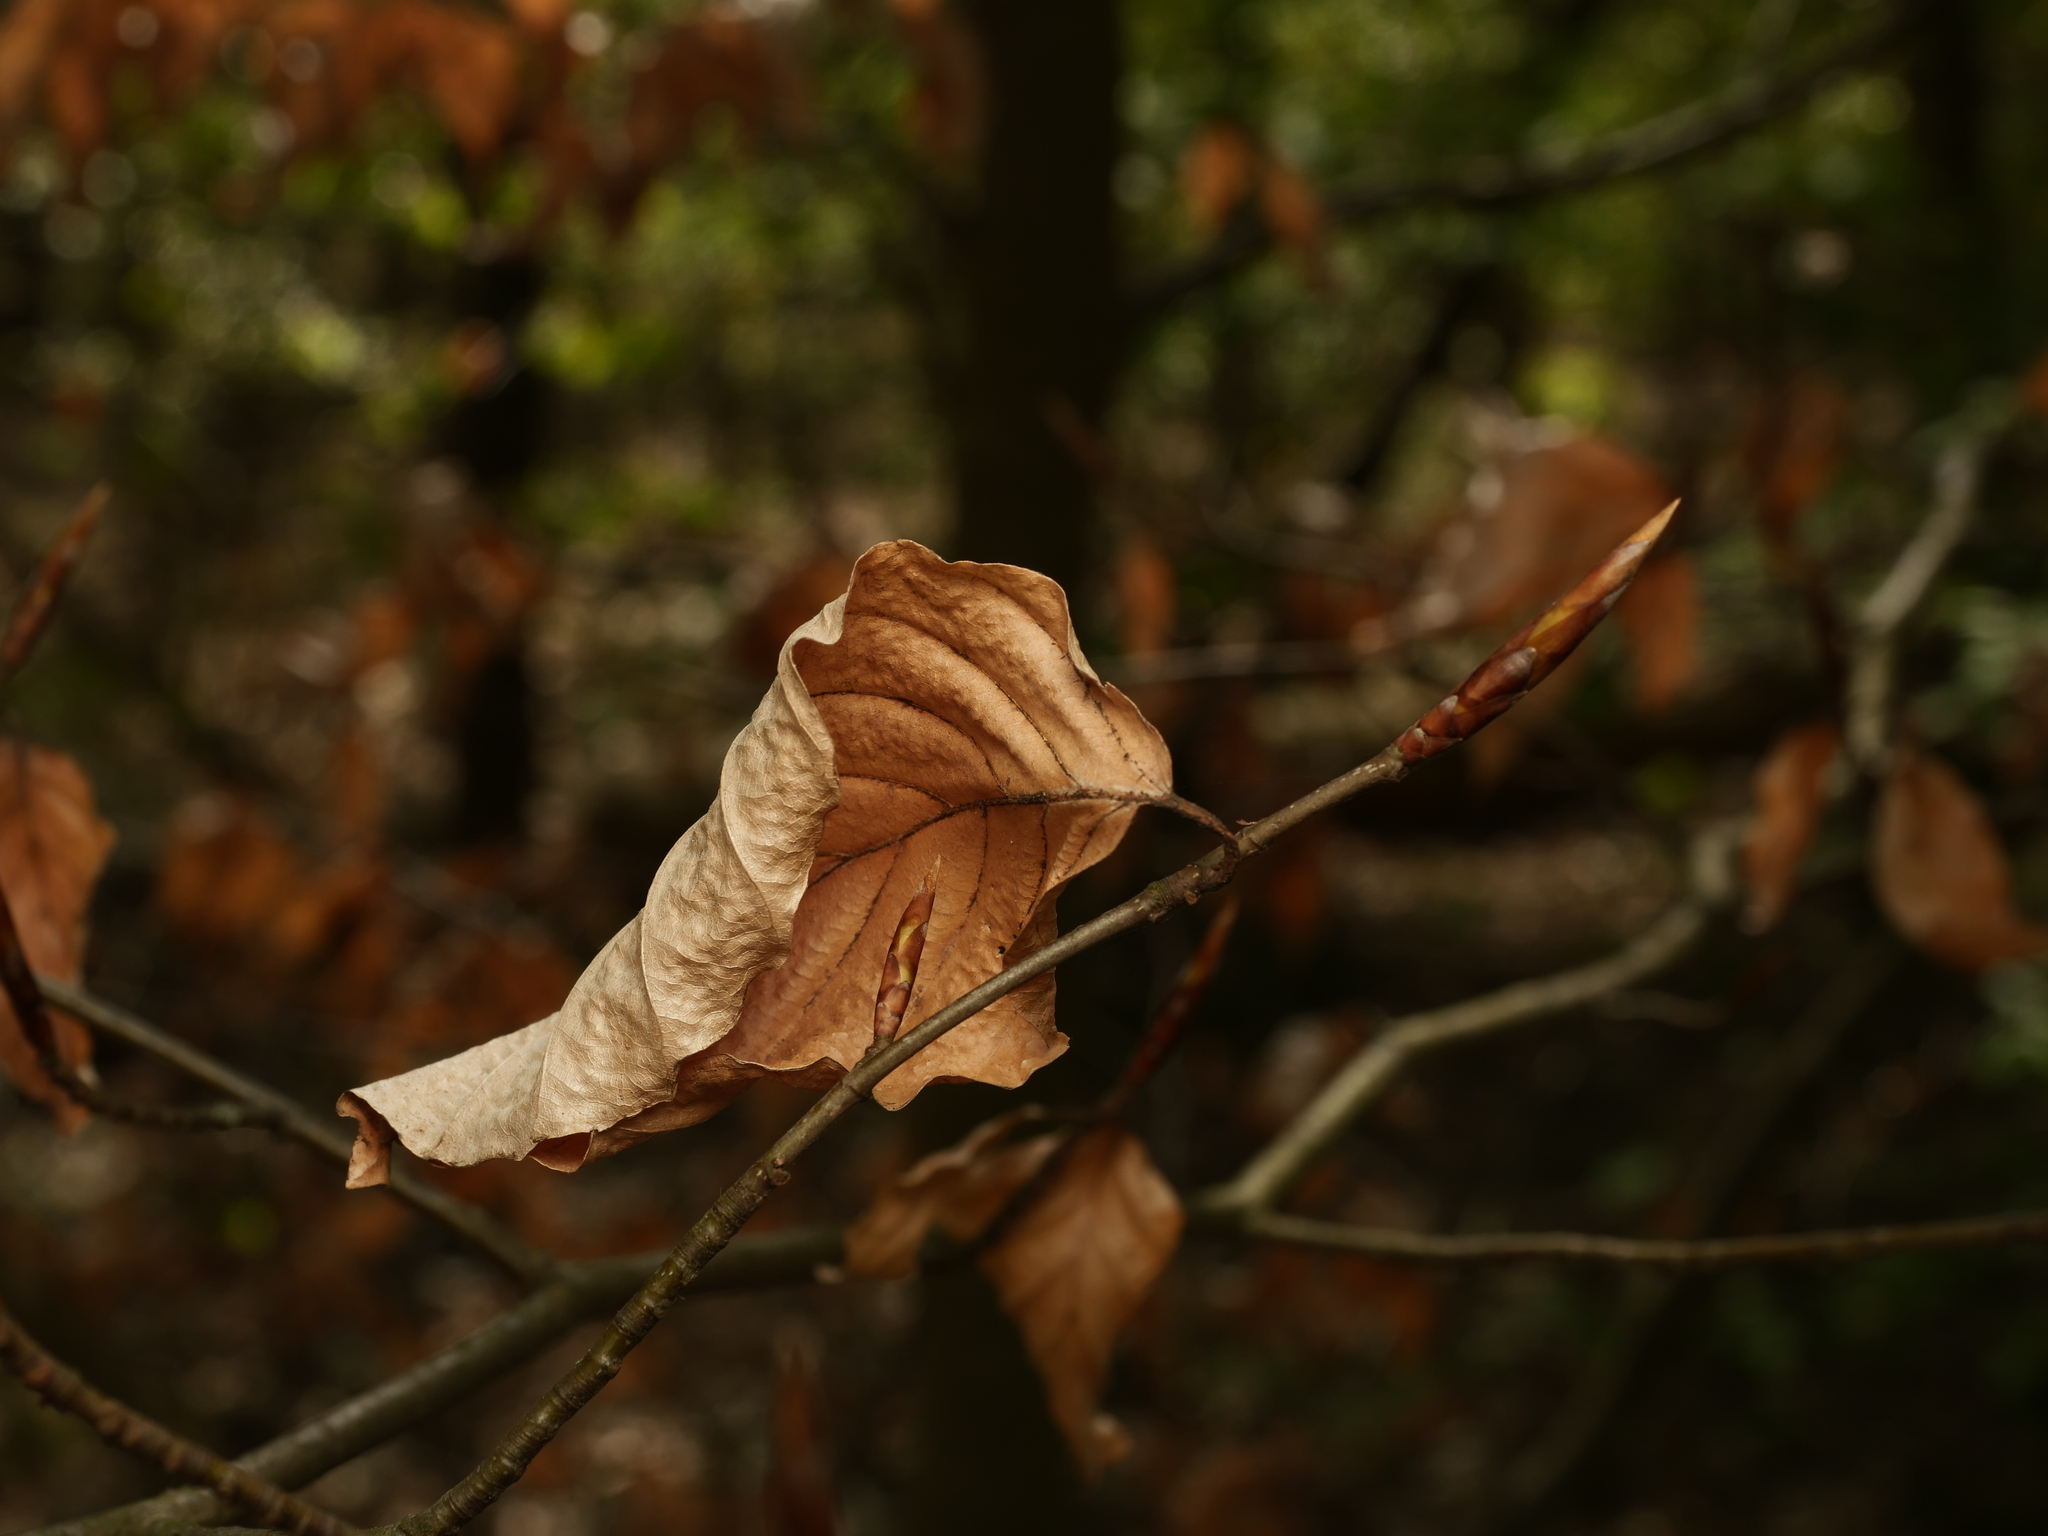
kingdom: Plantae
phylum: Tracheophyta
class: Magnoliopsida
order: Fagales
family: Fagaceae
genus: Fagus
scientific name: Fagus sylvatica
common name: Beech
